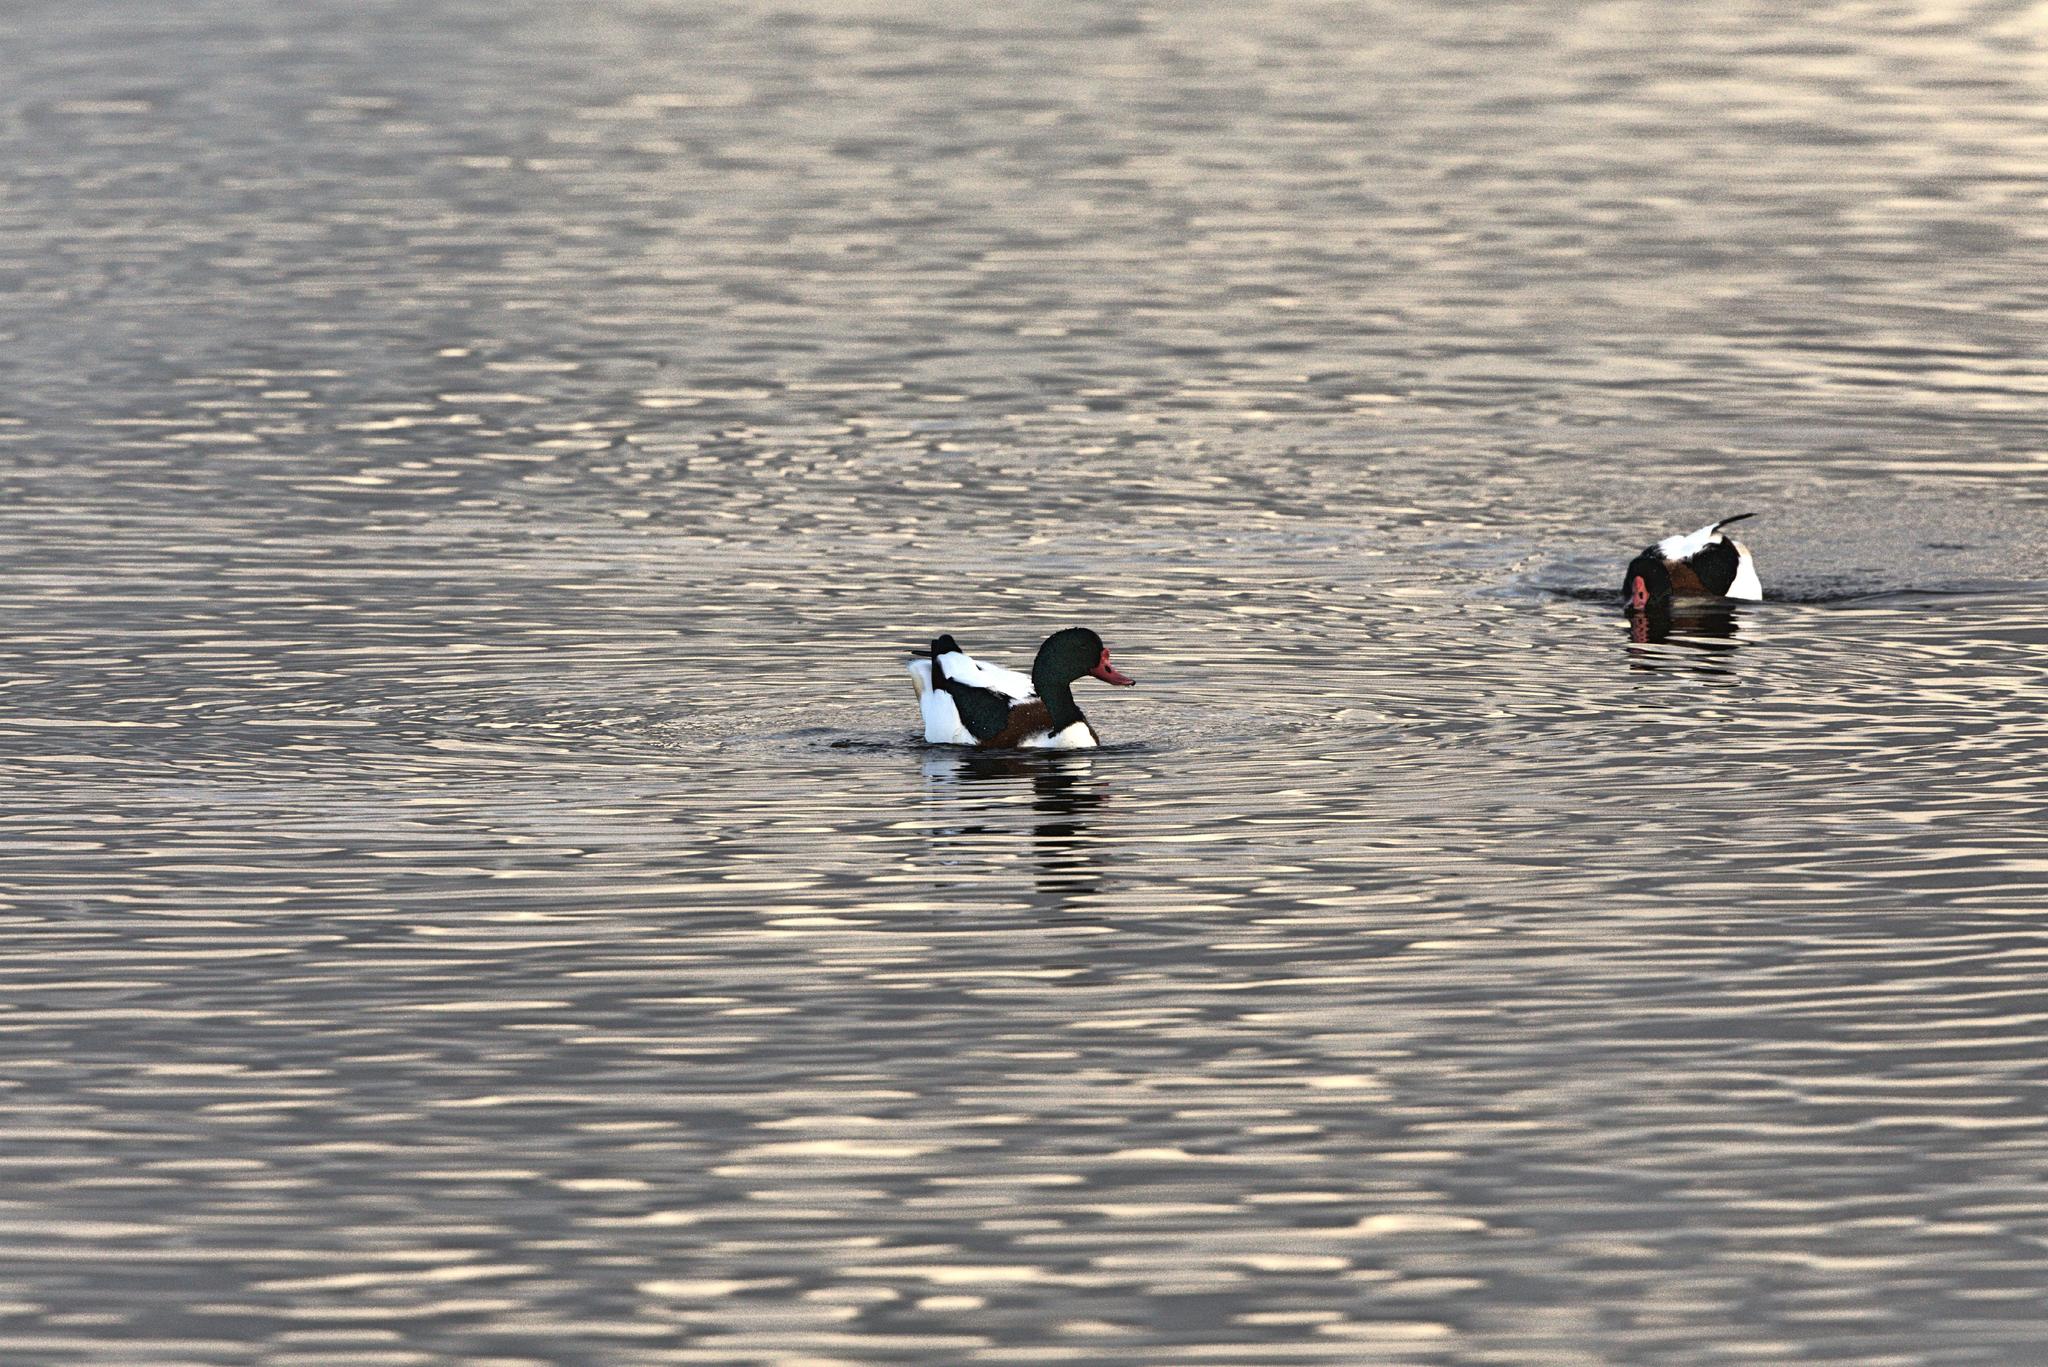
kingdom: Animalia
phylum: Chordata
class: Aves
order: Anseriformes
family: Anatidae
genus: Tadorna
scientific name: Tadorna tadorna
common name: Common shelduck
